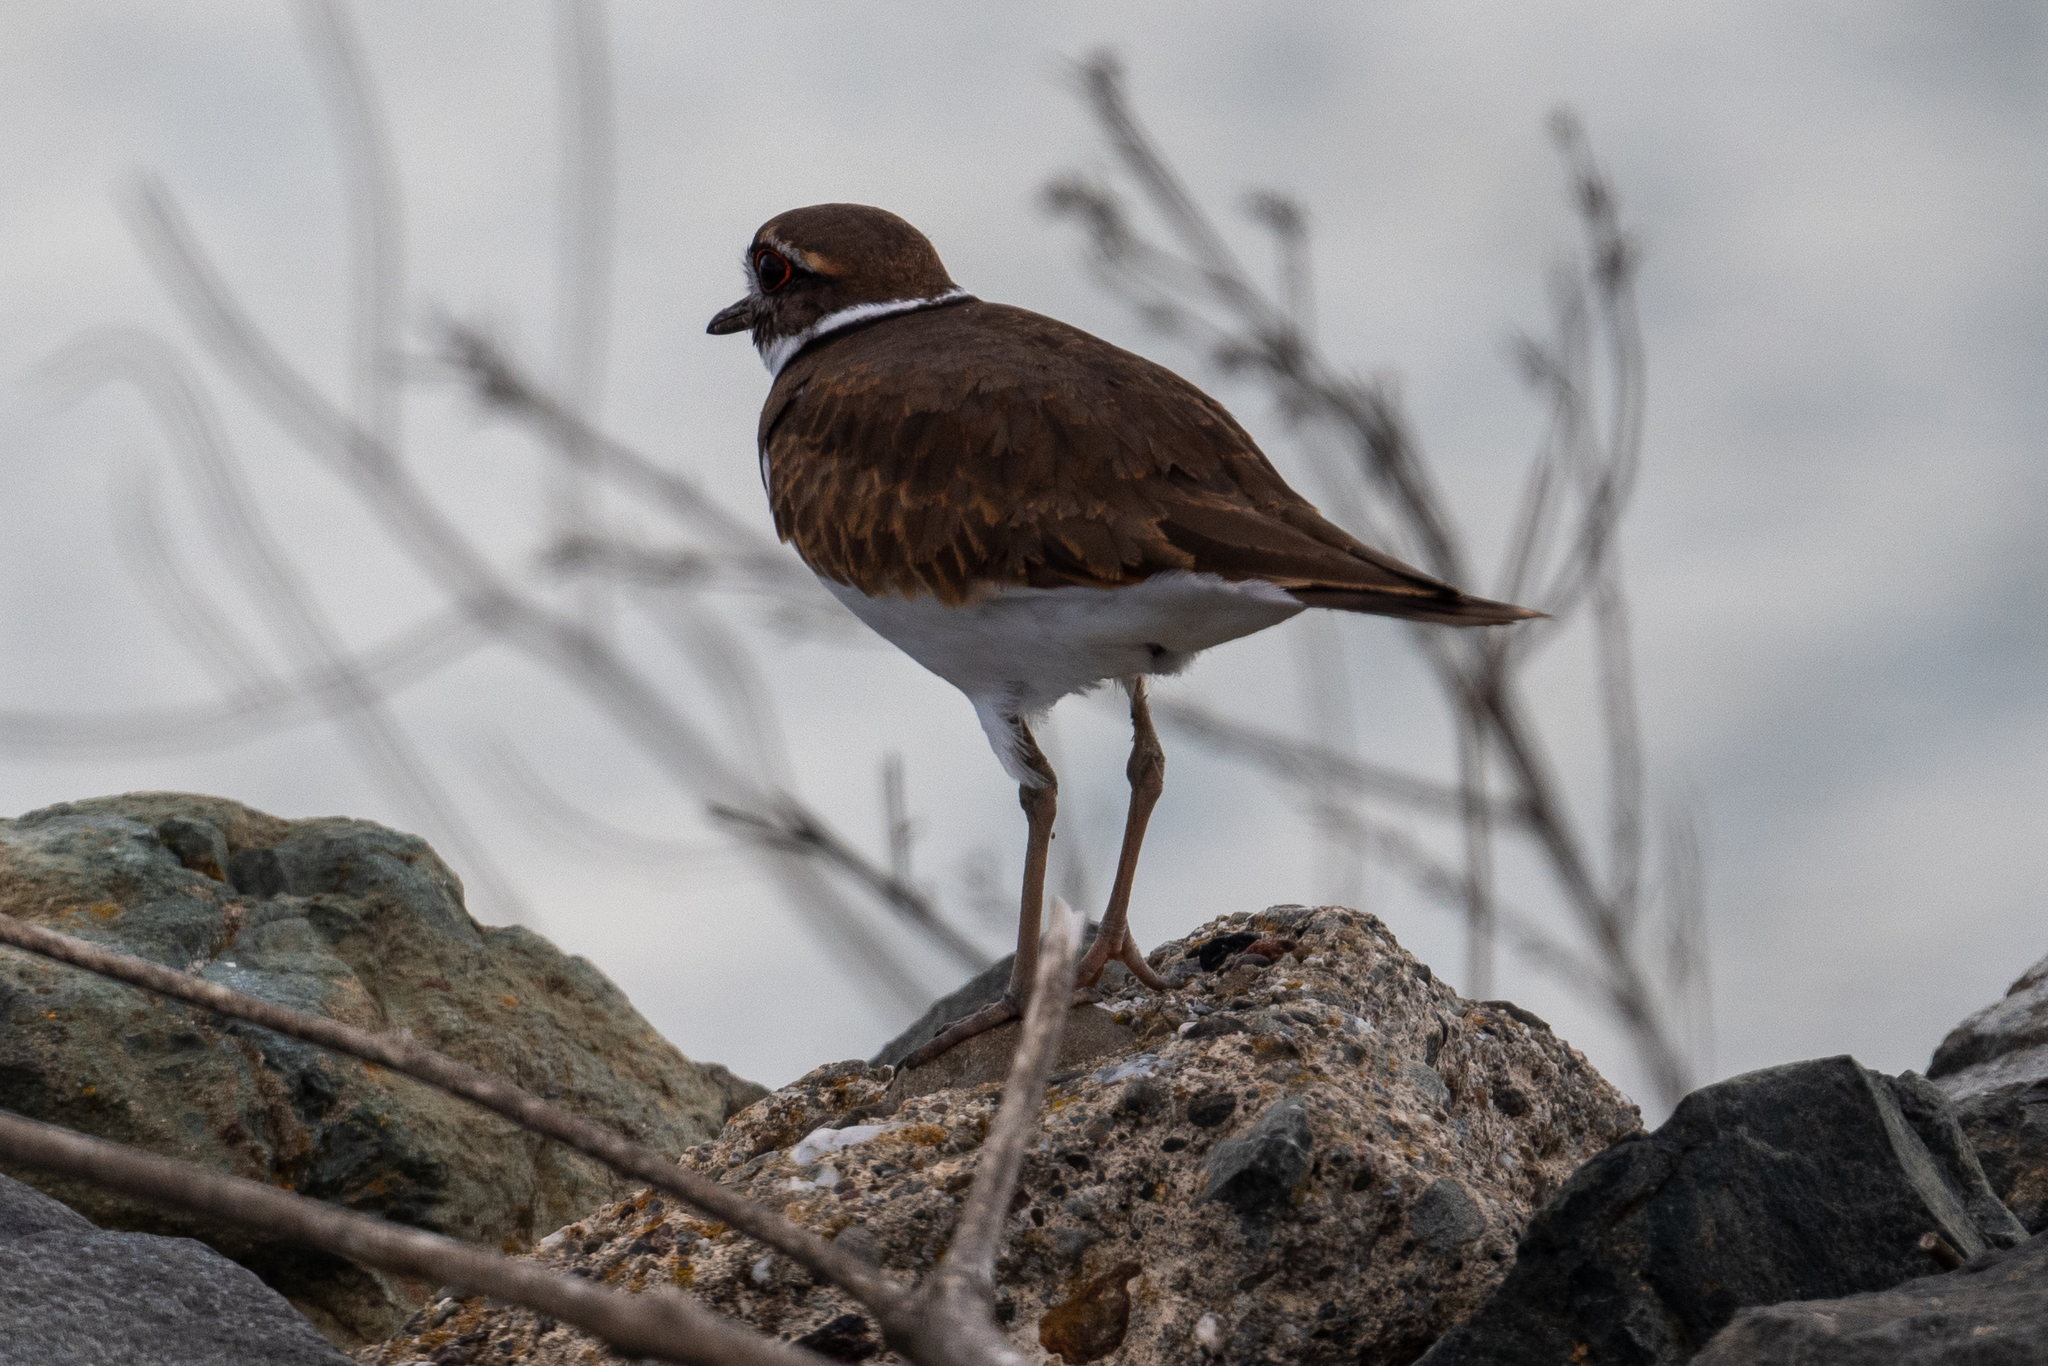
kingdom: Animalia
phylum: Chordata
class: Aves
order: Charadriiformes
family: Charadriidae
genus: Charadrius
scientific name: Charadrius vociferus
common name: Killdeer
